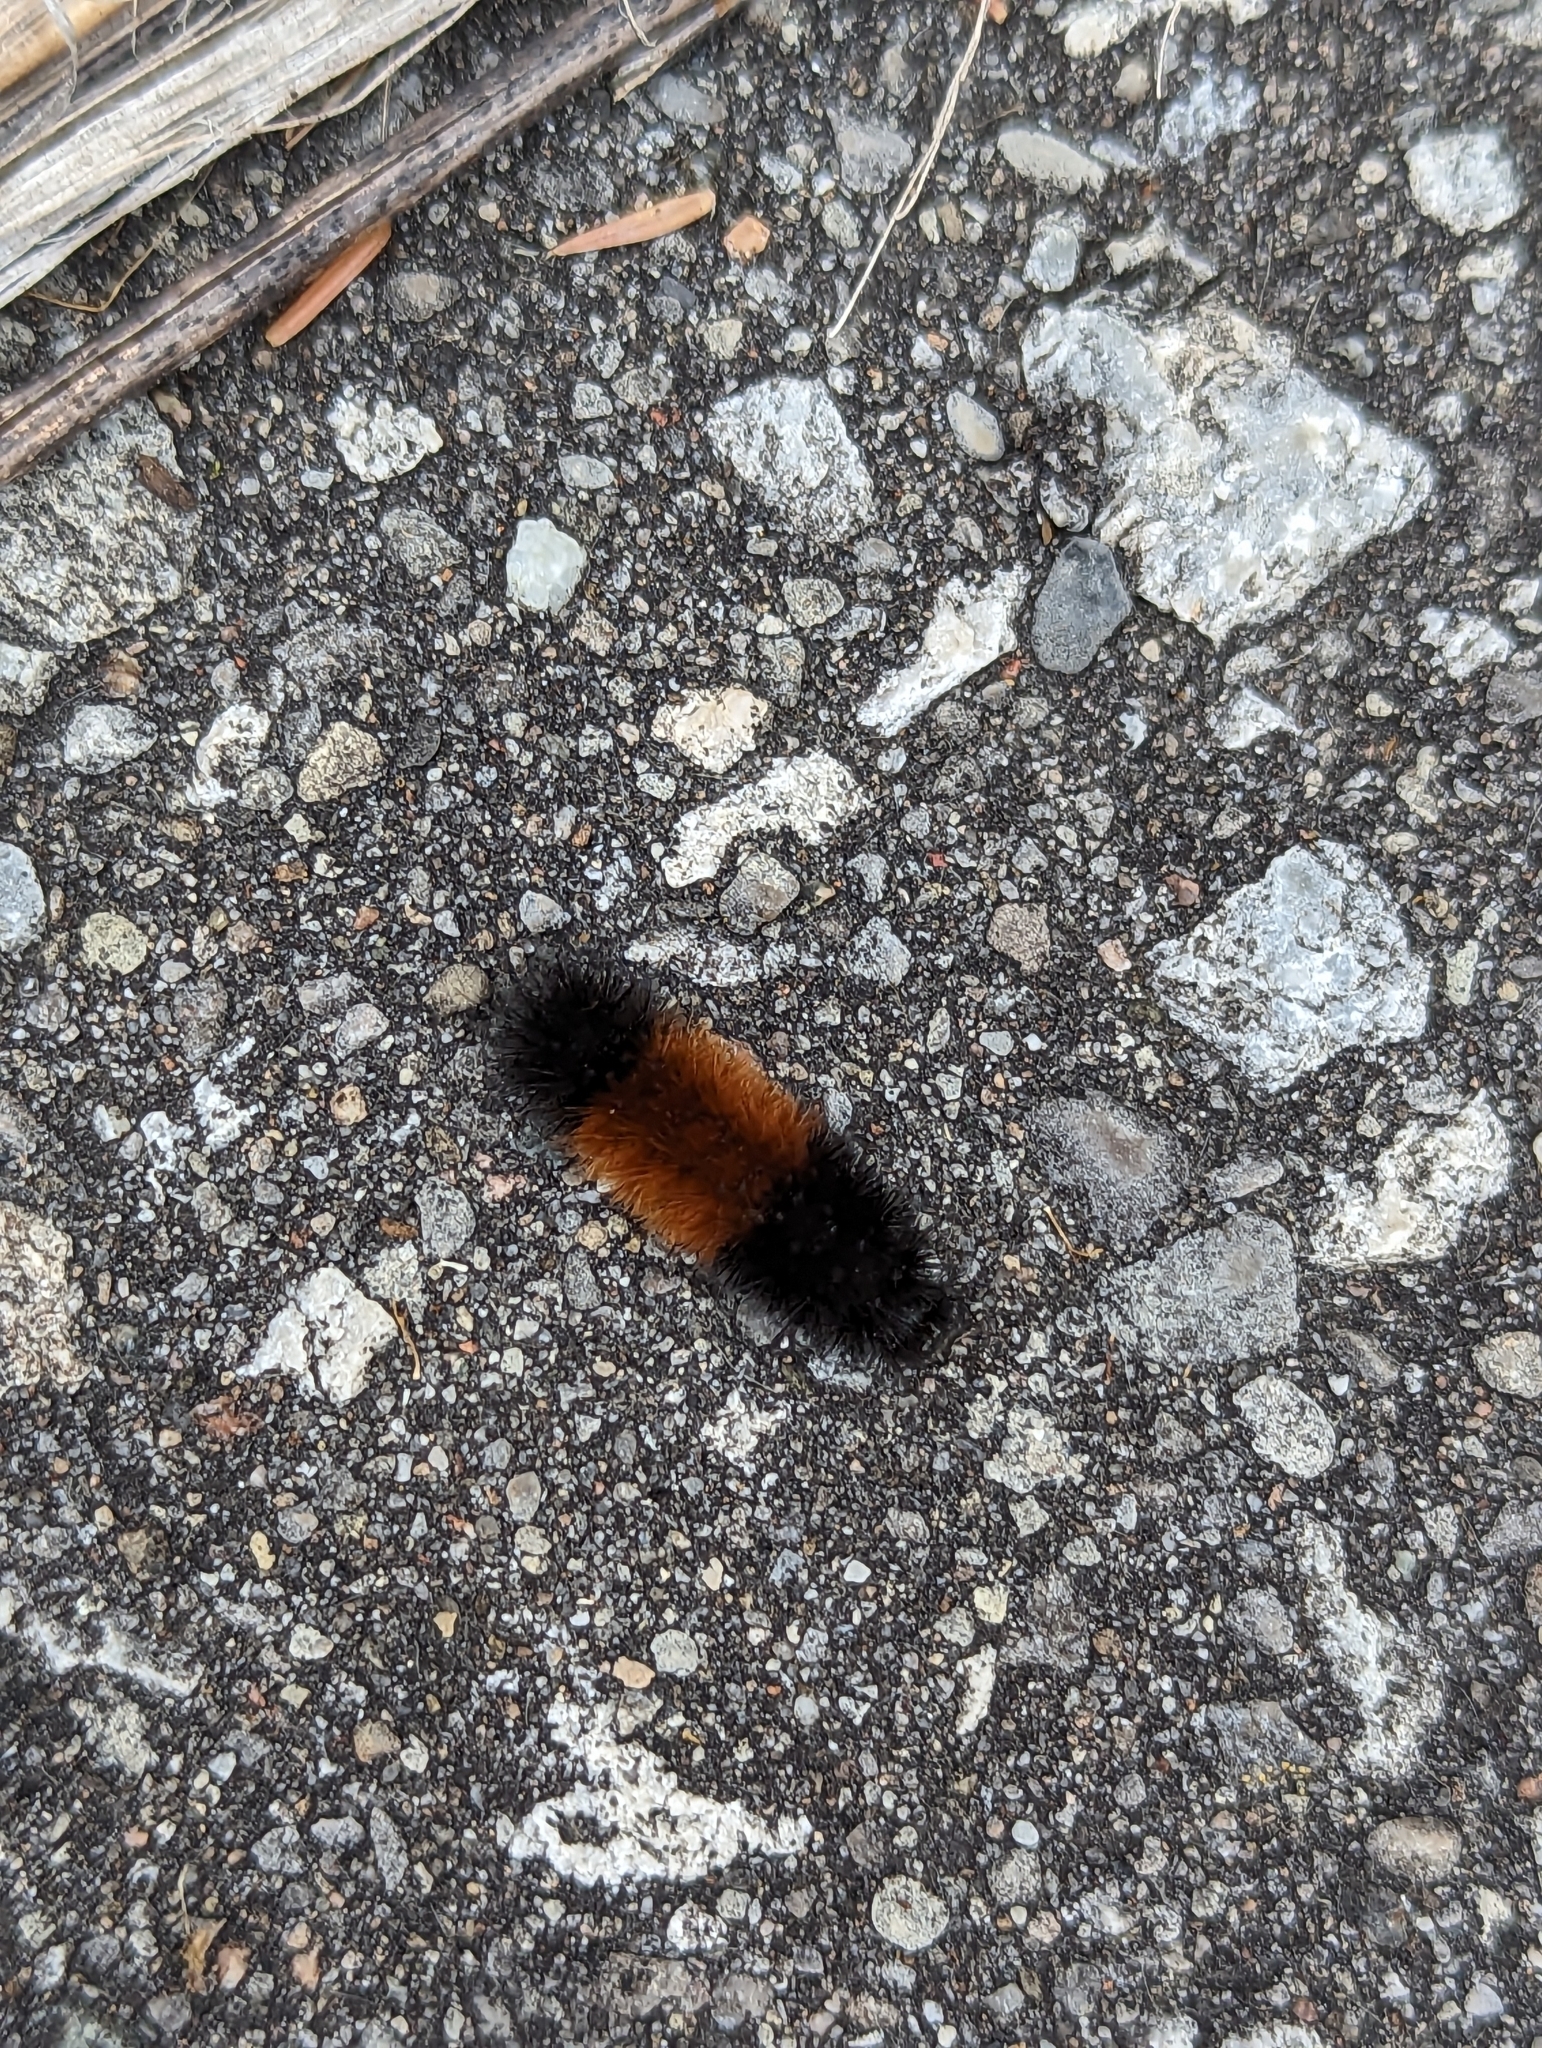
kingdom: Animalia
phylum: Arthropoda
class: Insecta
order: Lepidoptera
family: Erebidae
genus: Pyrrharctia
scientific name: Pyrrharctia isabella
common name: Isabella tiger moth
